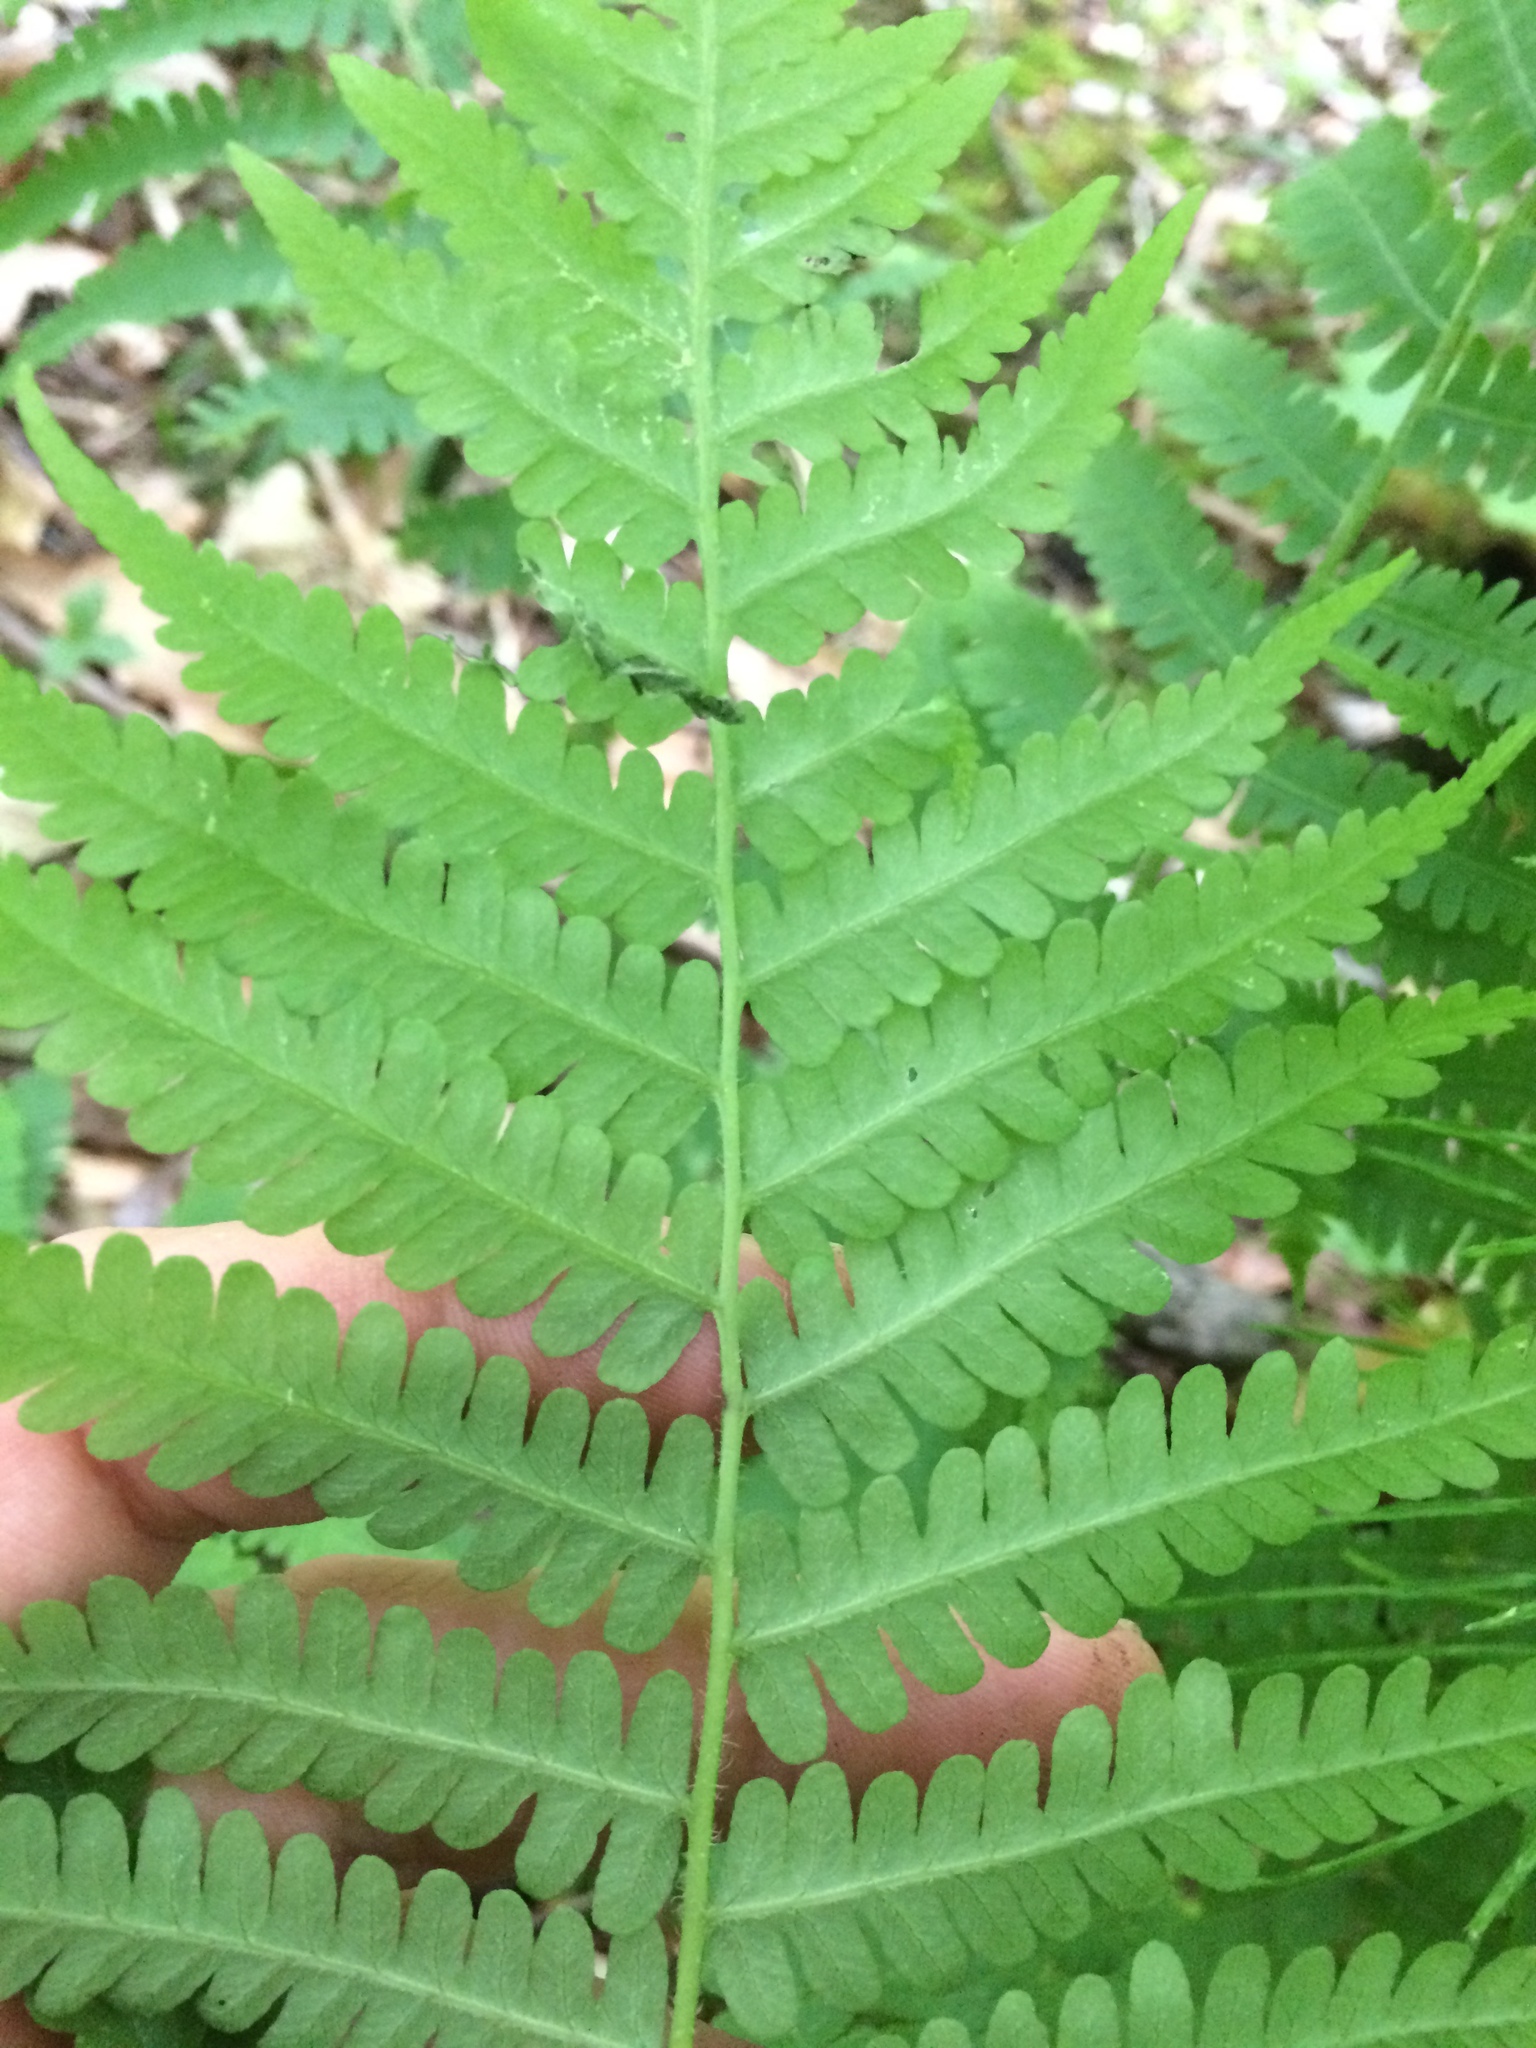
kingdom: Plantae
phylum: Tracheophyta
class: Polypodiopsida
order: Polypodiales
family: Athyriaceae
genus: Deparia
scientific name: Deparia acrostichoides
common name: Silver false spleenwort
